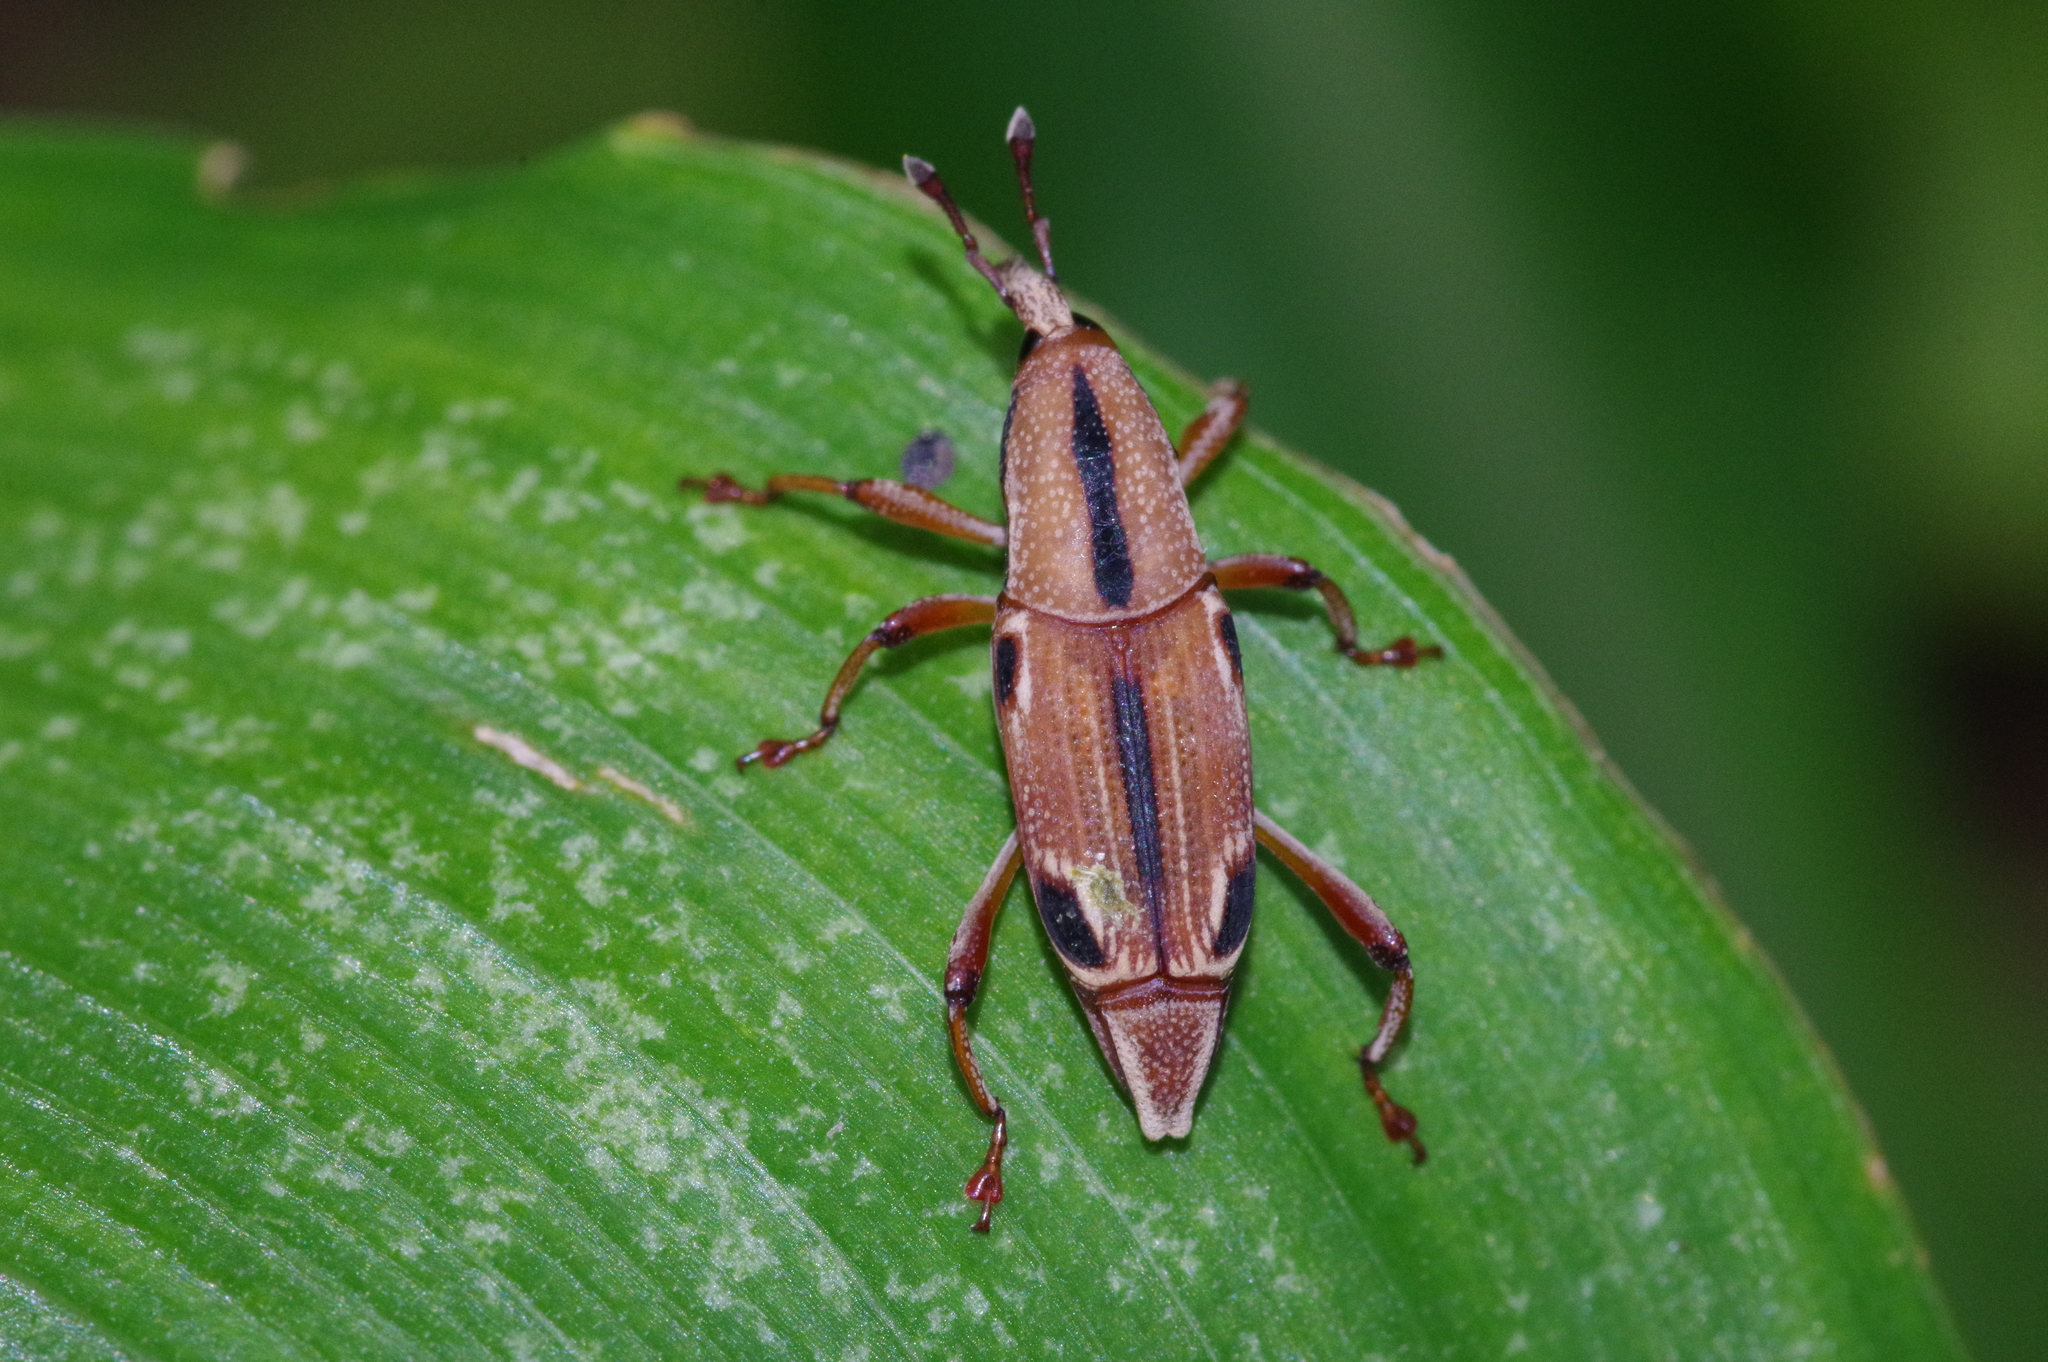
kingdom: Animalia
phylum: Arthropoda
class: Insecta
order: Coleoptera
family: Dryophthoridae
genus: Sphenocorynes
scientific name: Sphenocorynes ocellatus
